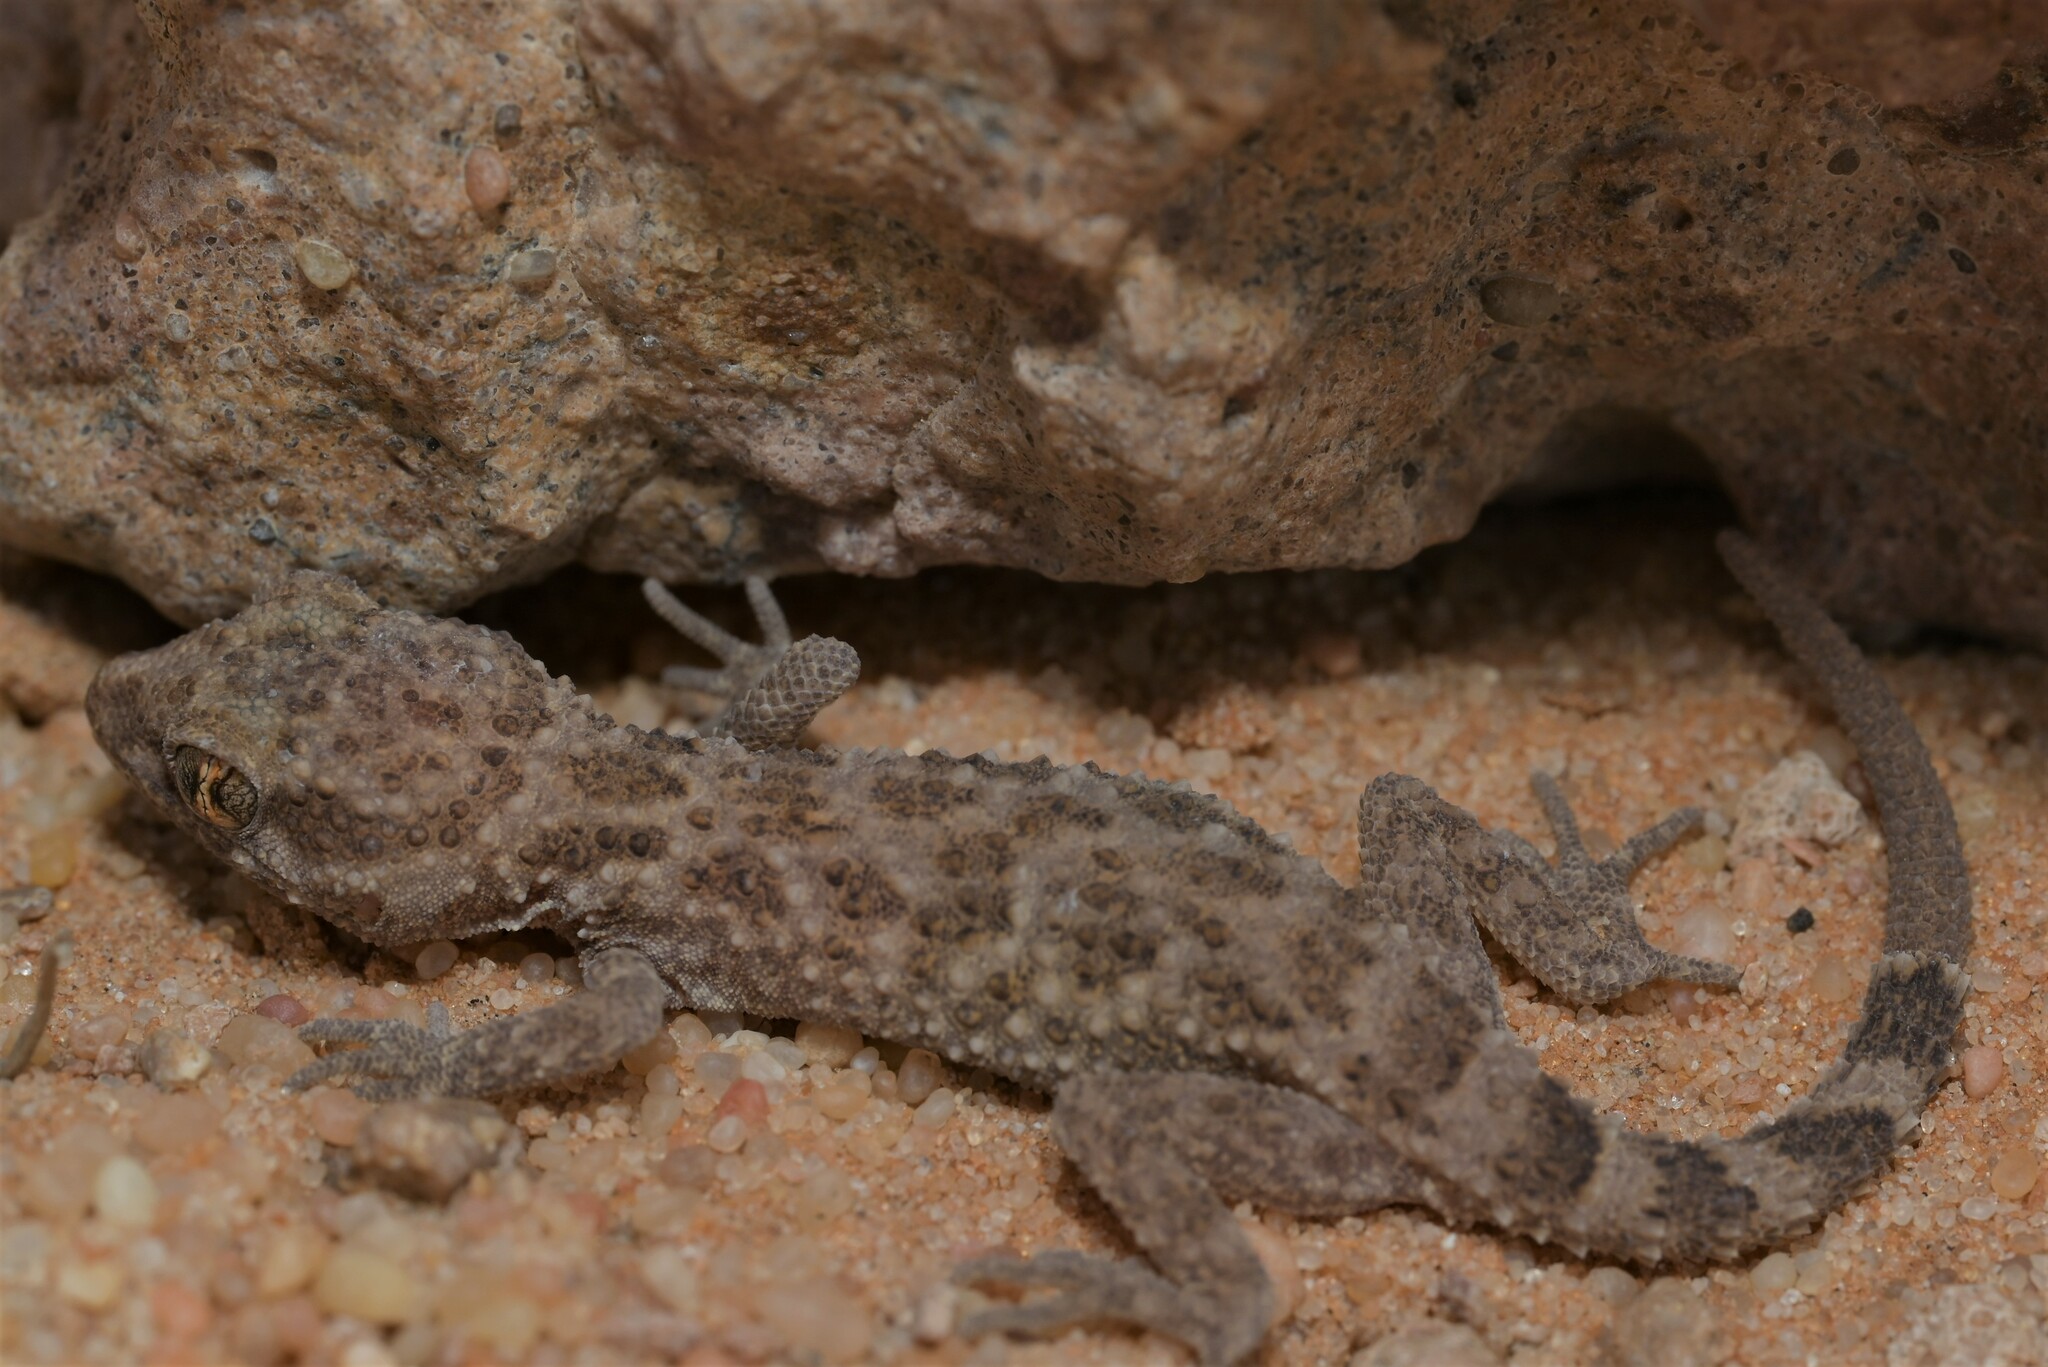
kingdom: Animalia
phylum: Chordata
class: Squamata
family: Gekkonidae
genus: Bunopus
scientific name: Bunopus tuberculatus
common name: Southern tuberculated gecko
